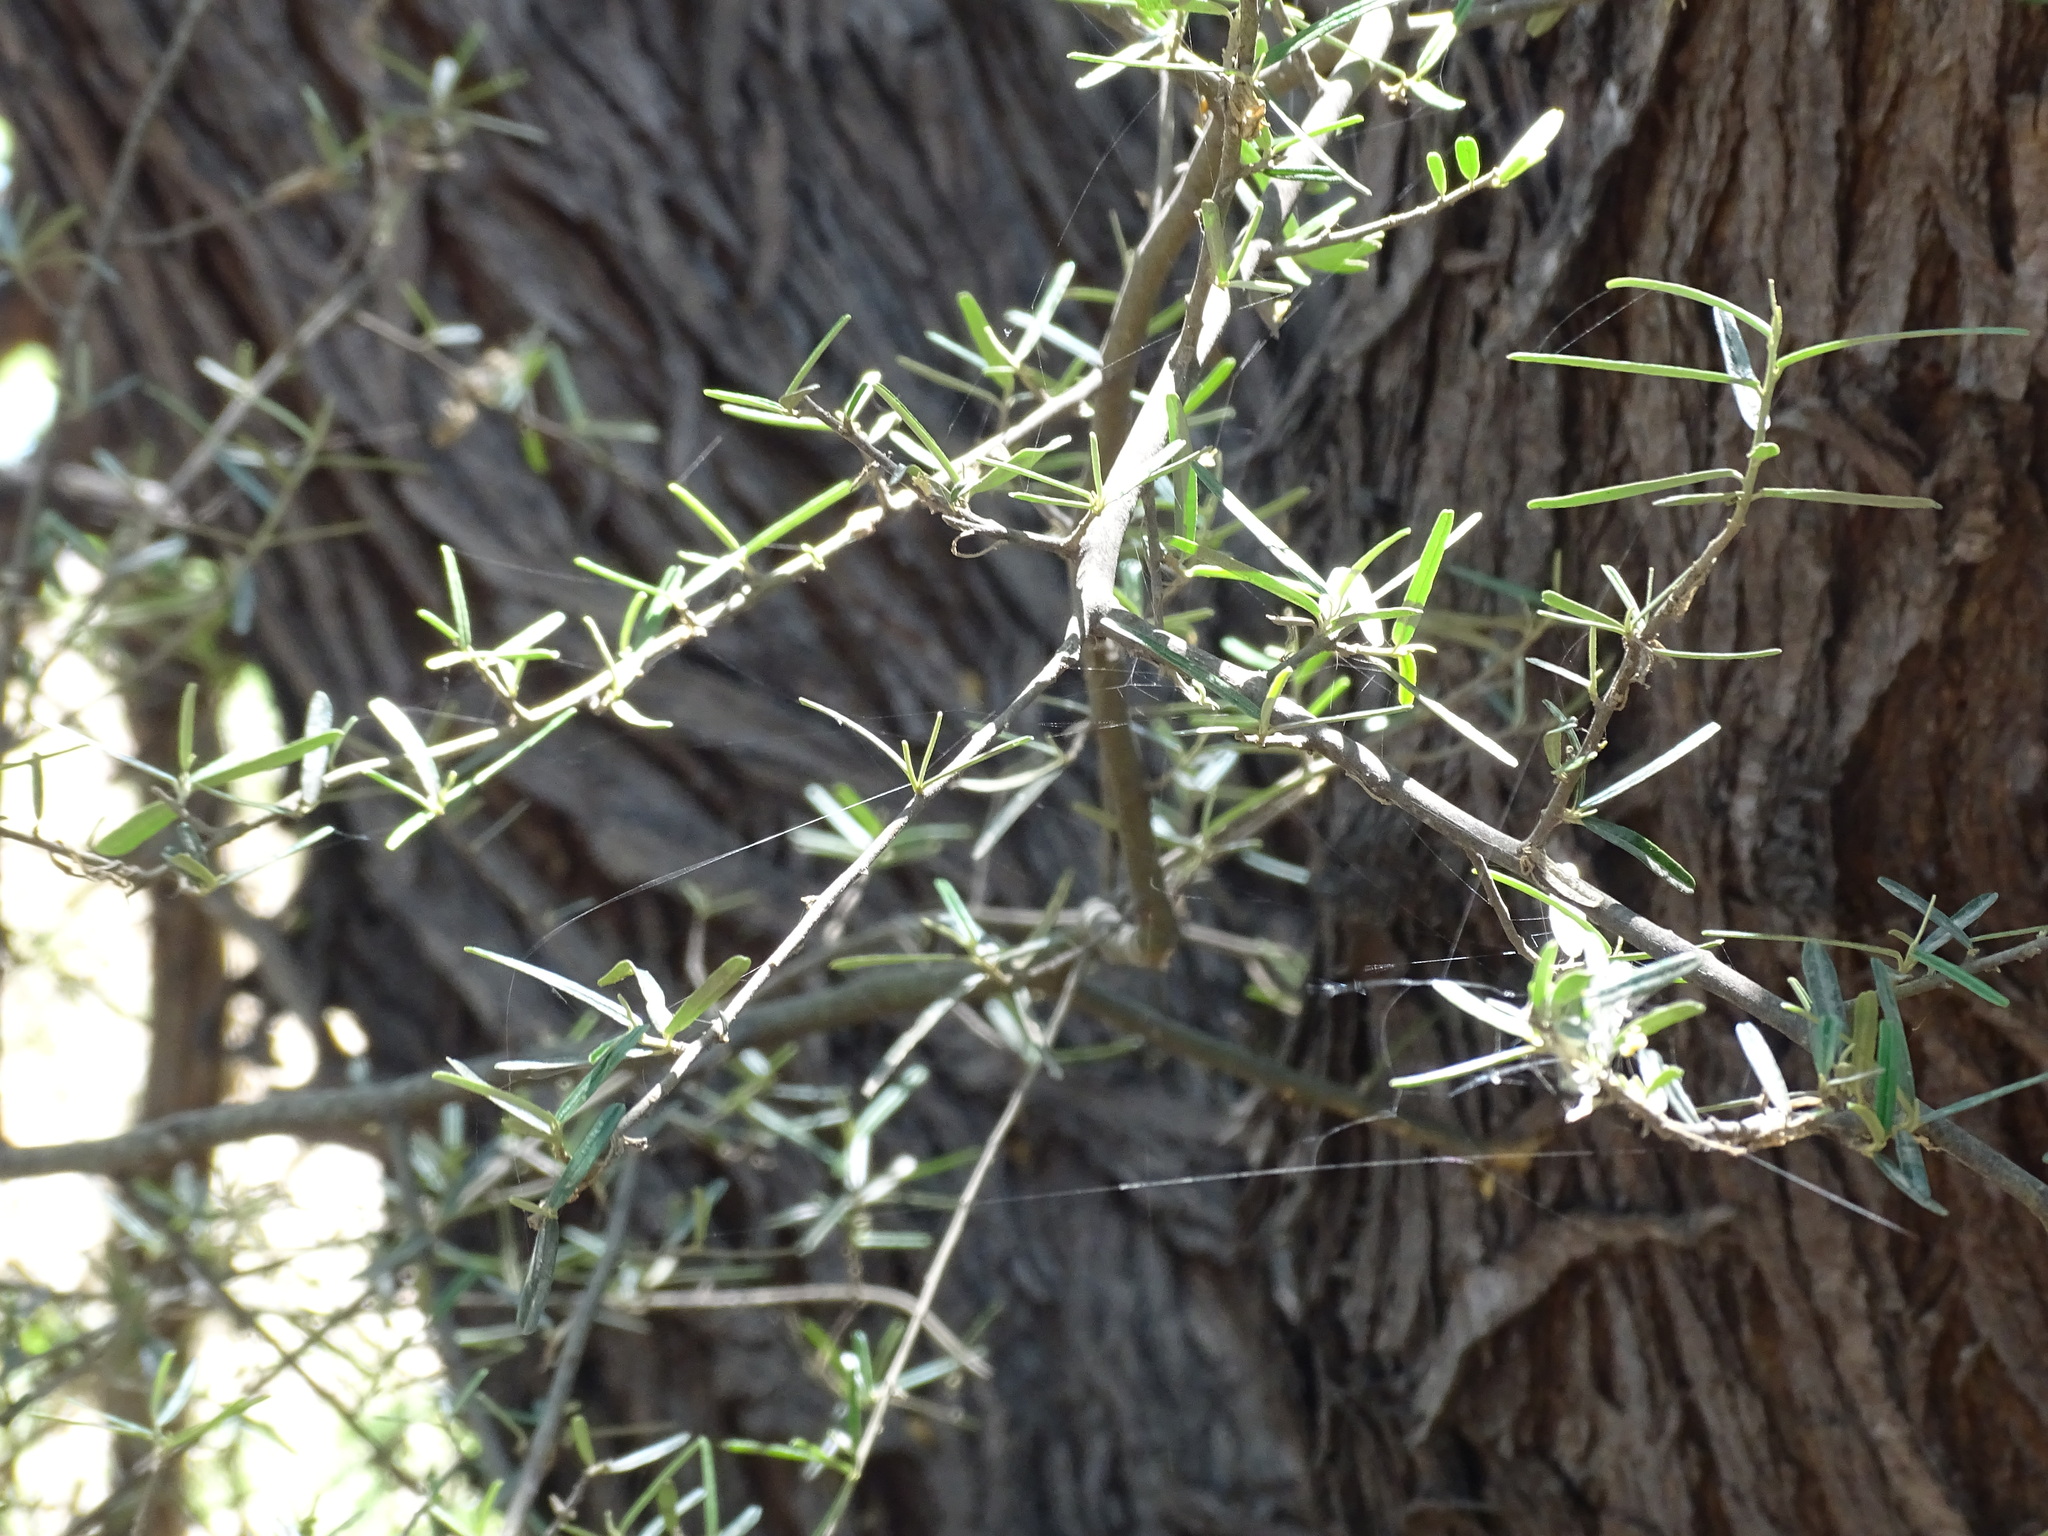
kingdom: Plantae
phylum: Tracheophyta
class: Magnoliopsida
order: Brassicales
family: Capparaceae
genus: Atamisquea
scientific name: Atamisquea emarginata
